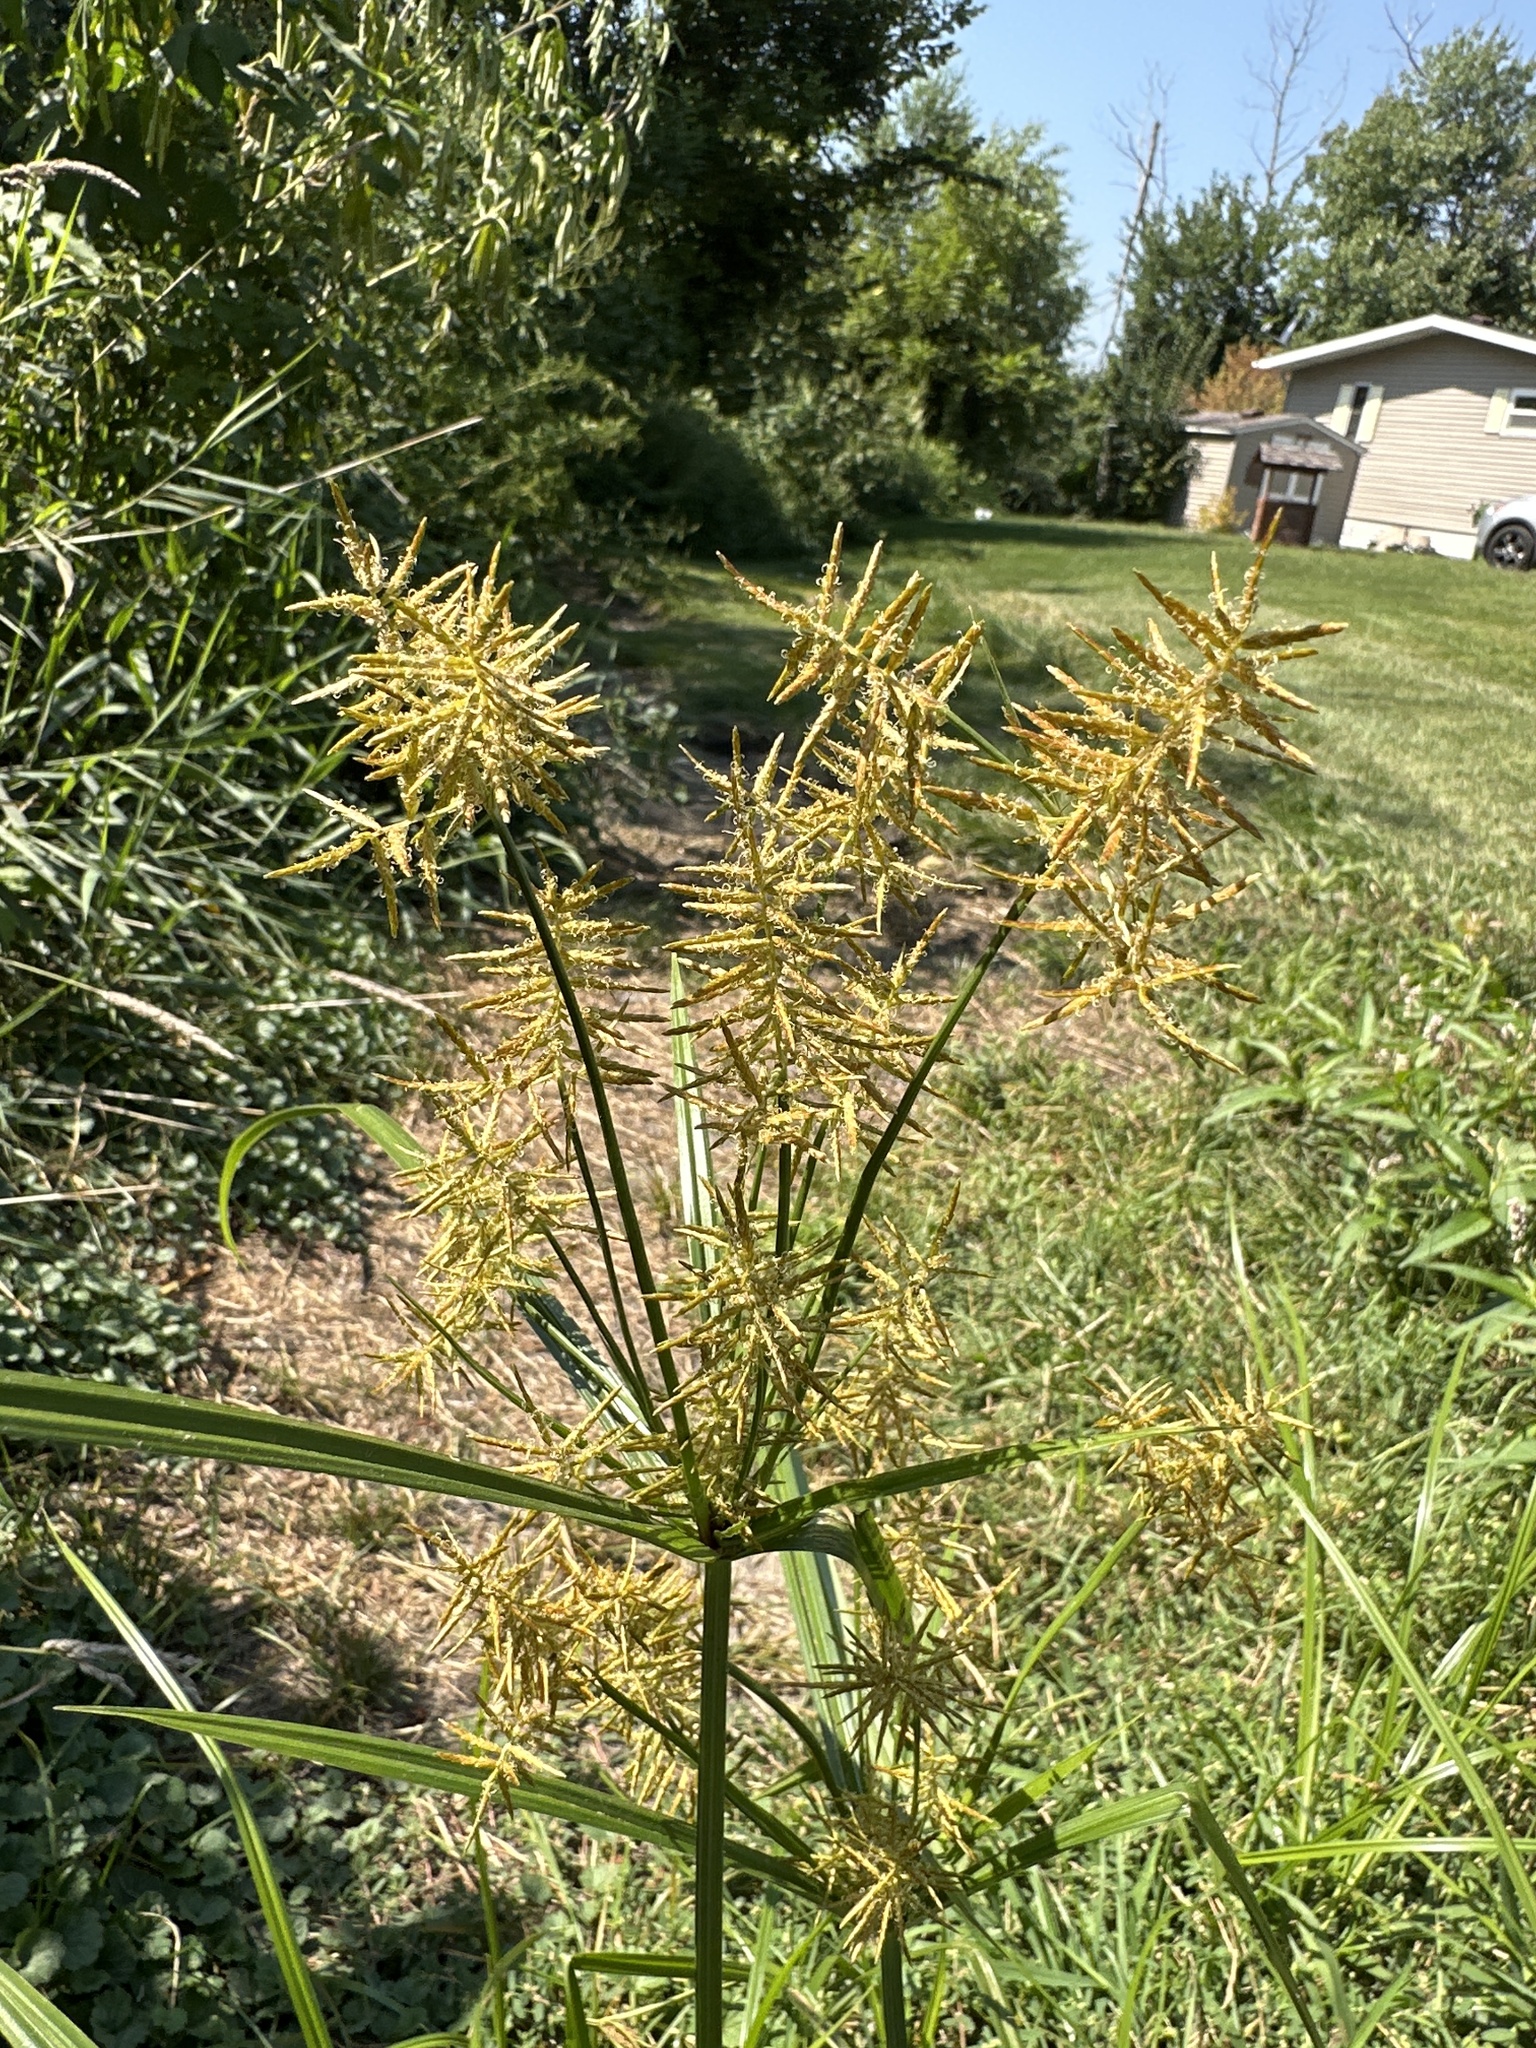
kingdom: Plantae
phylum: Tracheophyta
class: Liliopsida
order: Poales
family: Cyperaceae
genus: Cyperus
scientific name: Cyperus esculentus
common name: Yellow nutsedge
